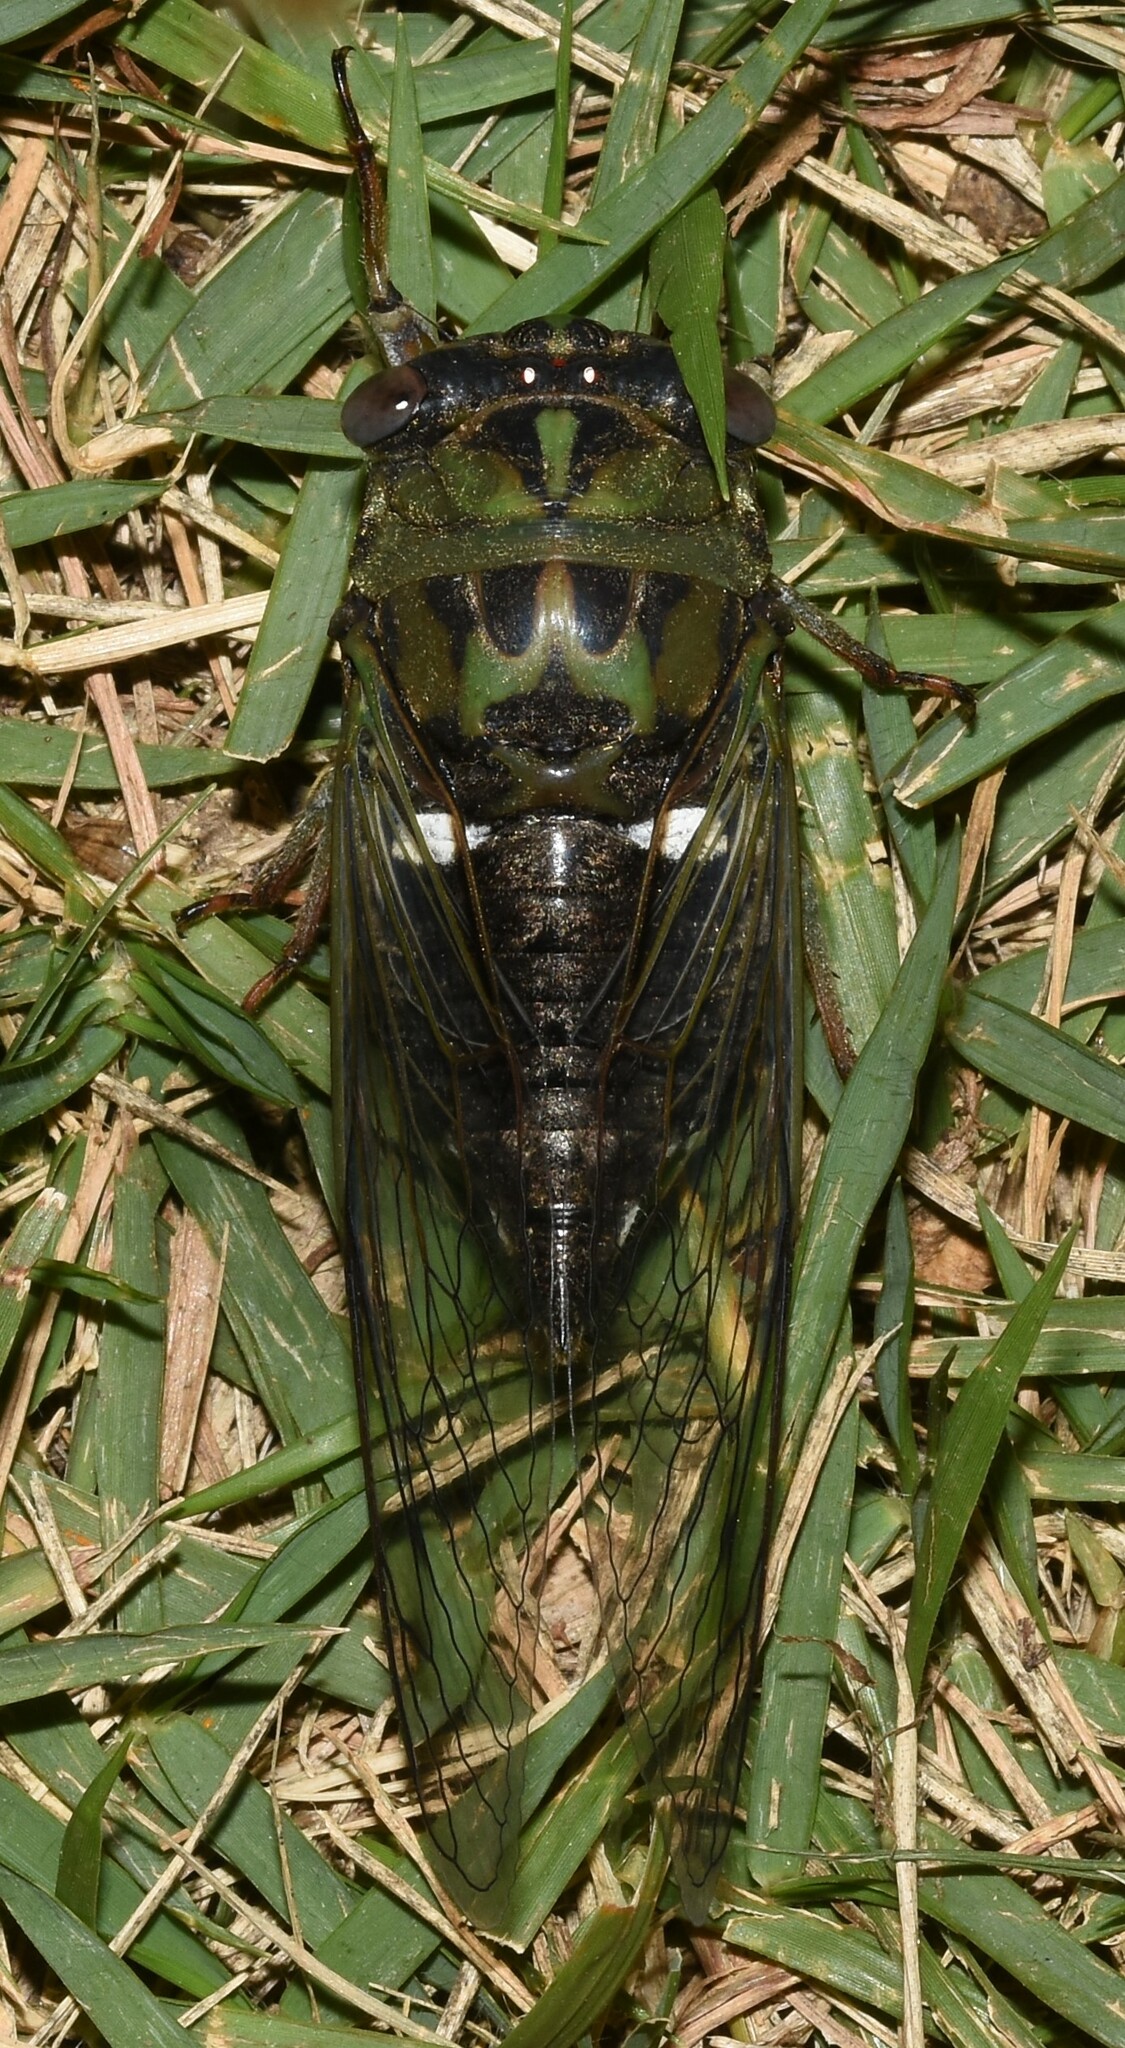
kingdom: Animalia
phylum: Arthropoda
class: Insecta
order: Hemiptera
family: Cicadidae
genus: Neotibicen
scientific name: Neotibicen pruinosus
